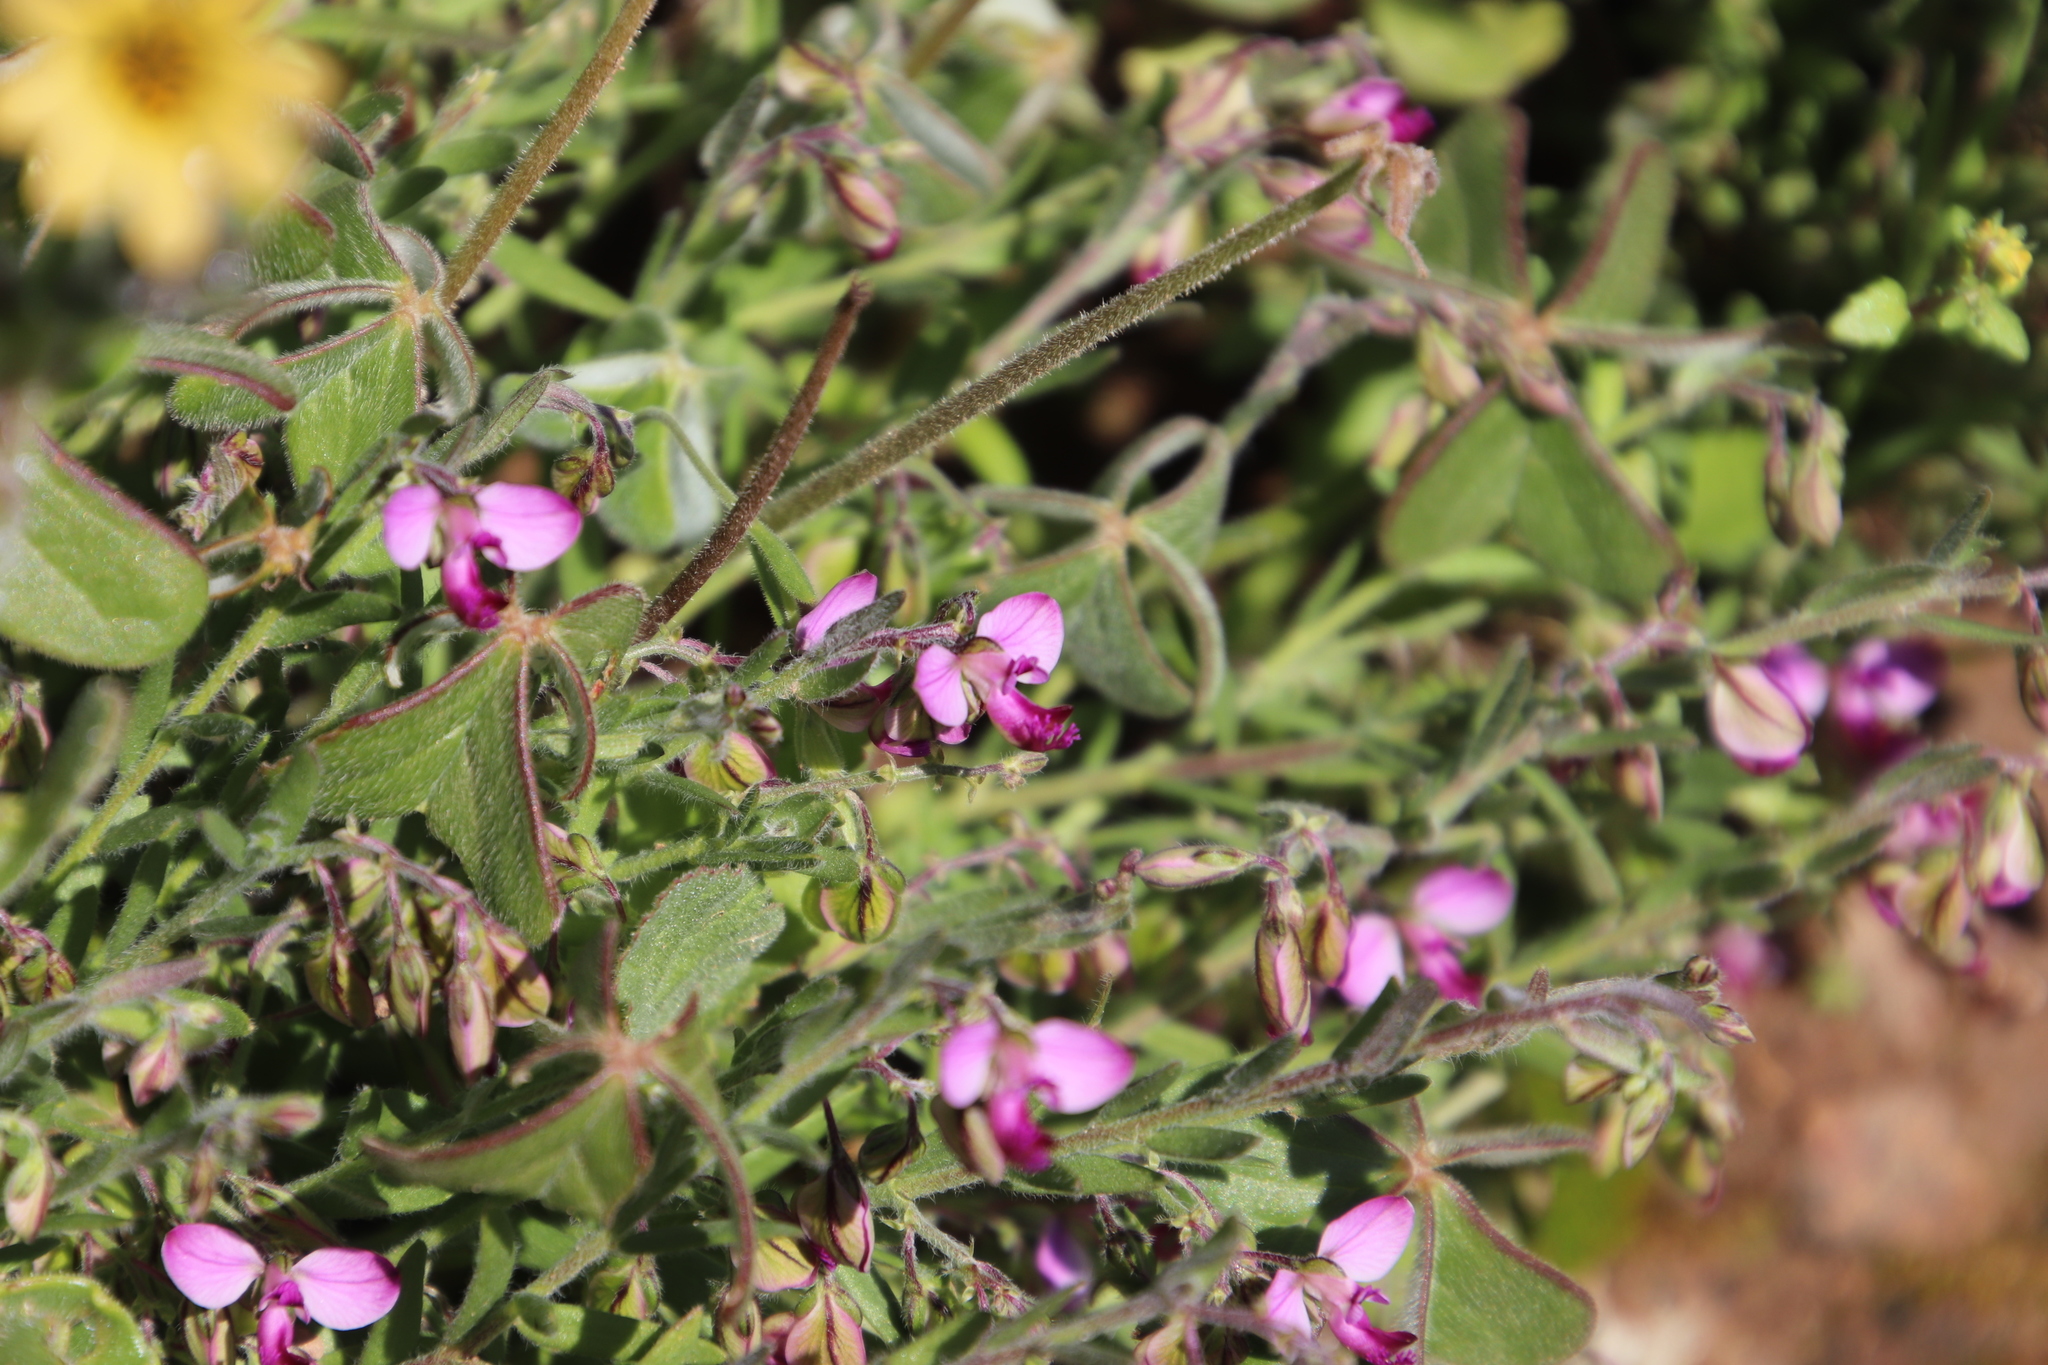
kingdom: Plantae
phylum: Tracheophyta
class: Magnoliopsida
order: Fabales
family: Polygalaceae
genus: Polygala
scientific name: Polygala scabra
